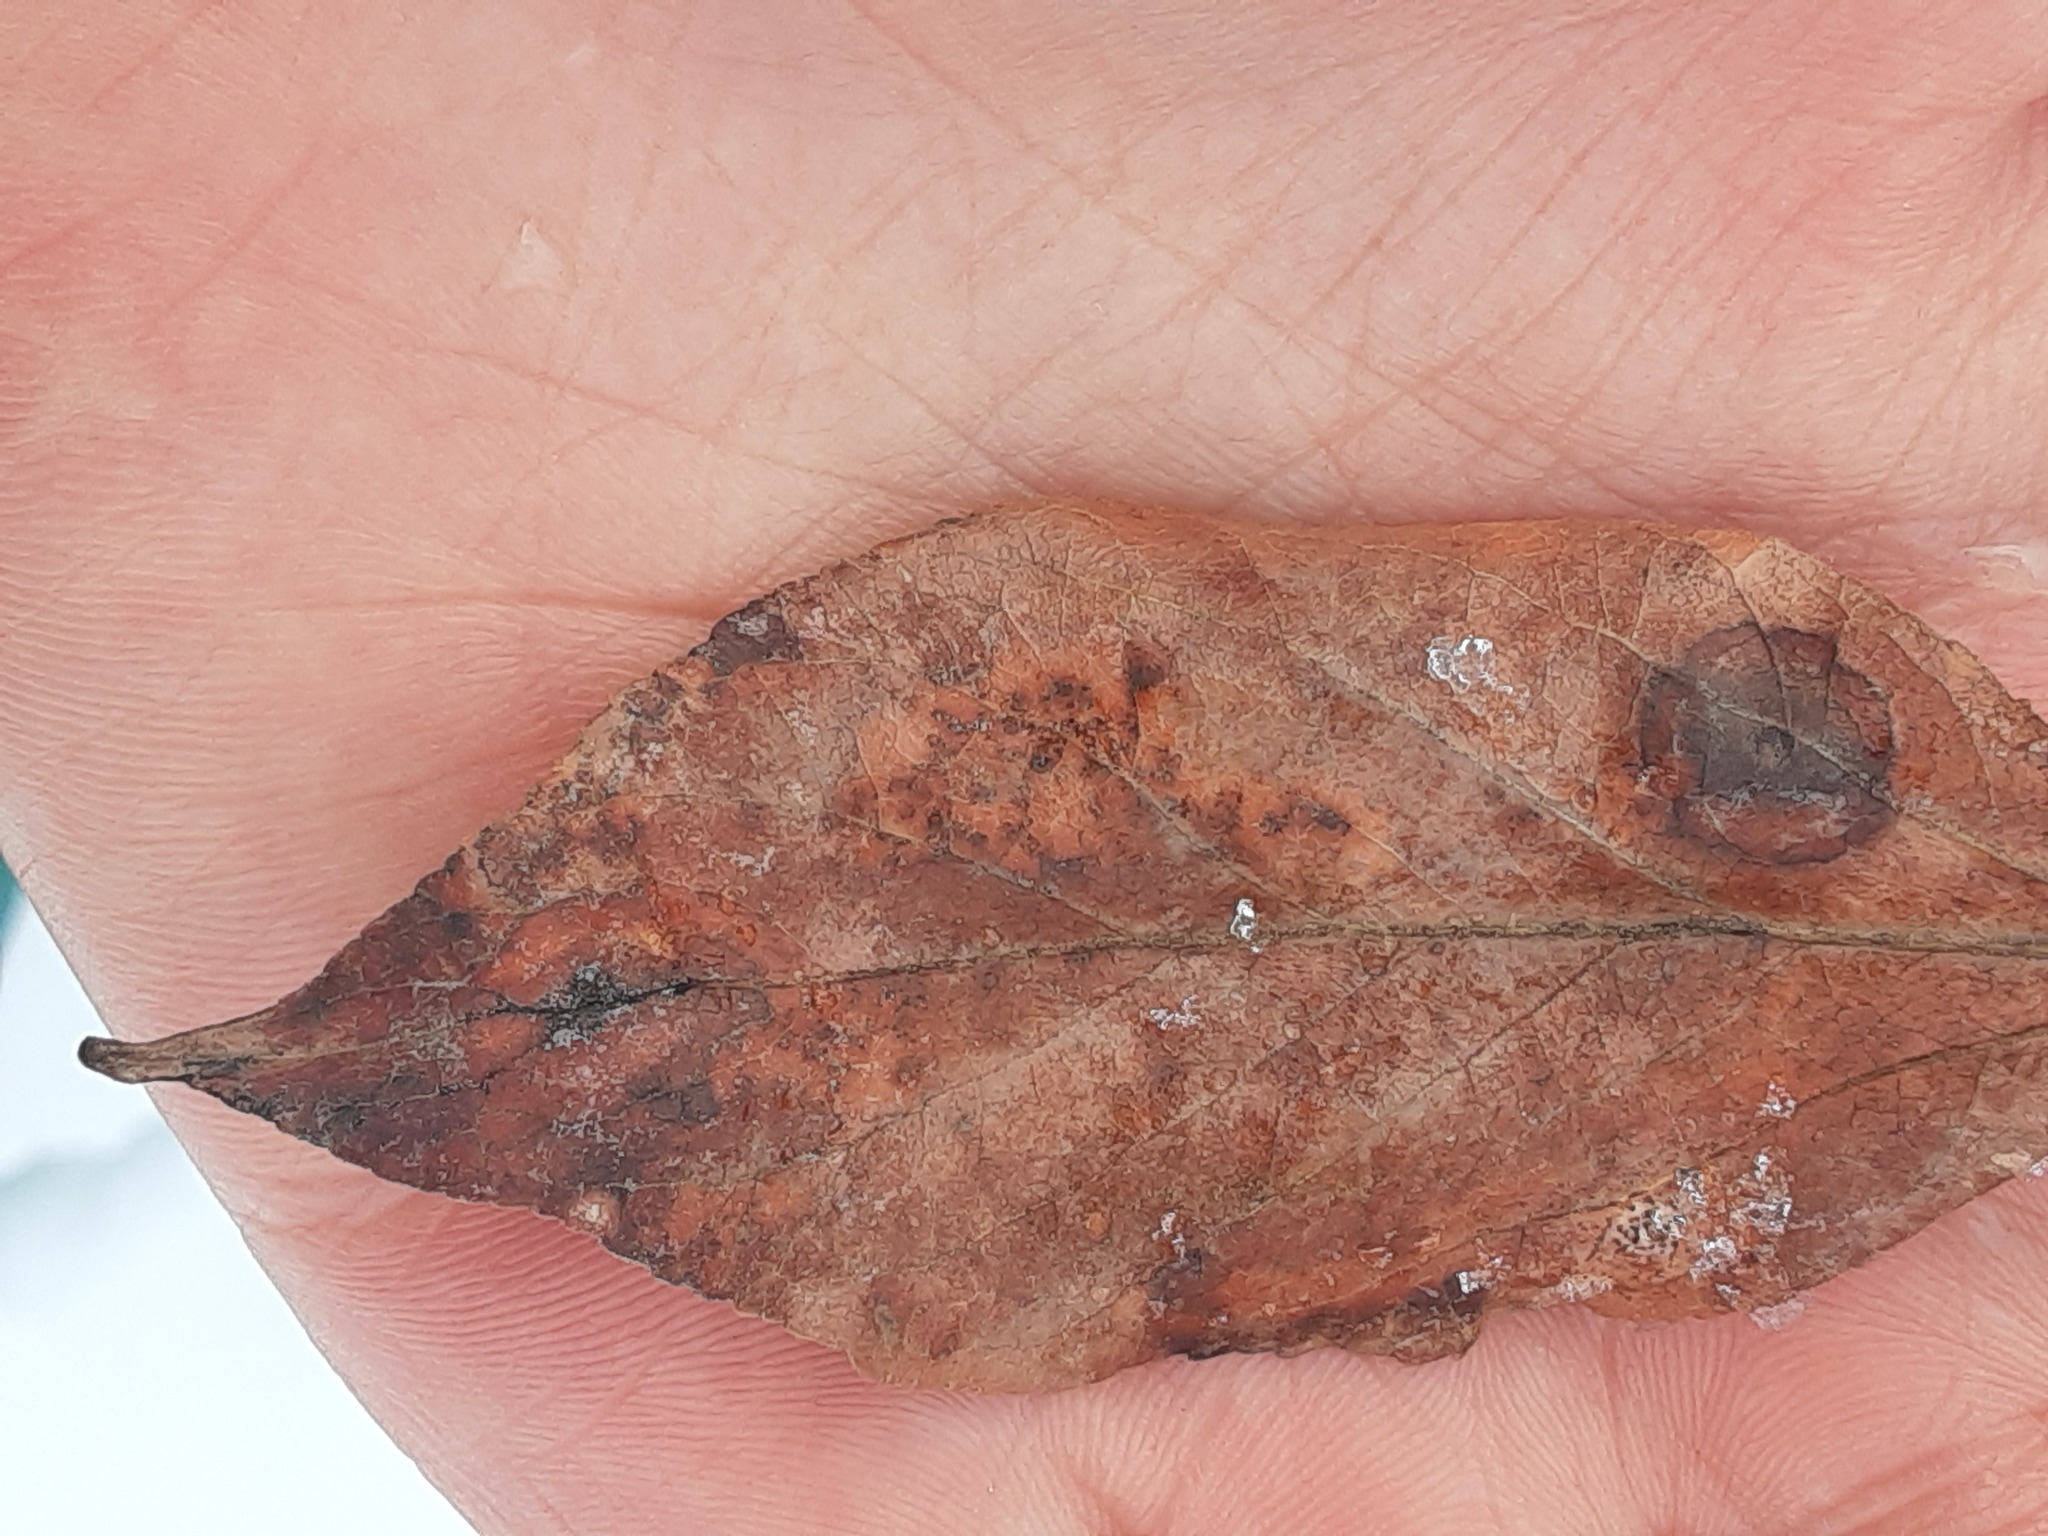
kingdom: Plantae
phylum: Tracheophyta
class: Magnoliopsida
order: Malpighiales
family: Salicaceae
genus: Populus
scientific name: Populus balsamifera
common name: Balsam poplar
